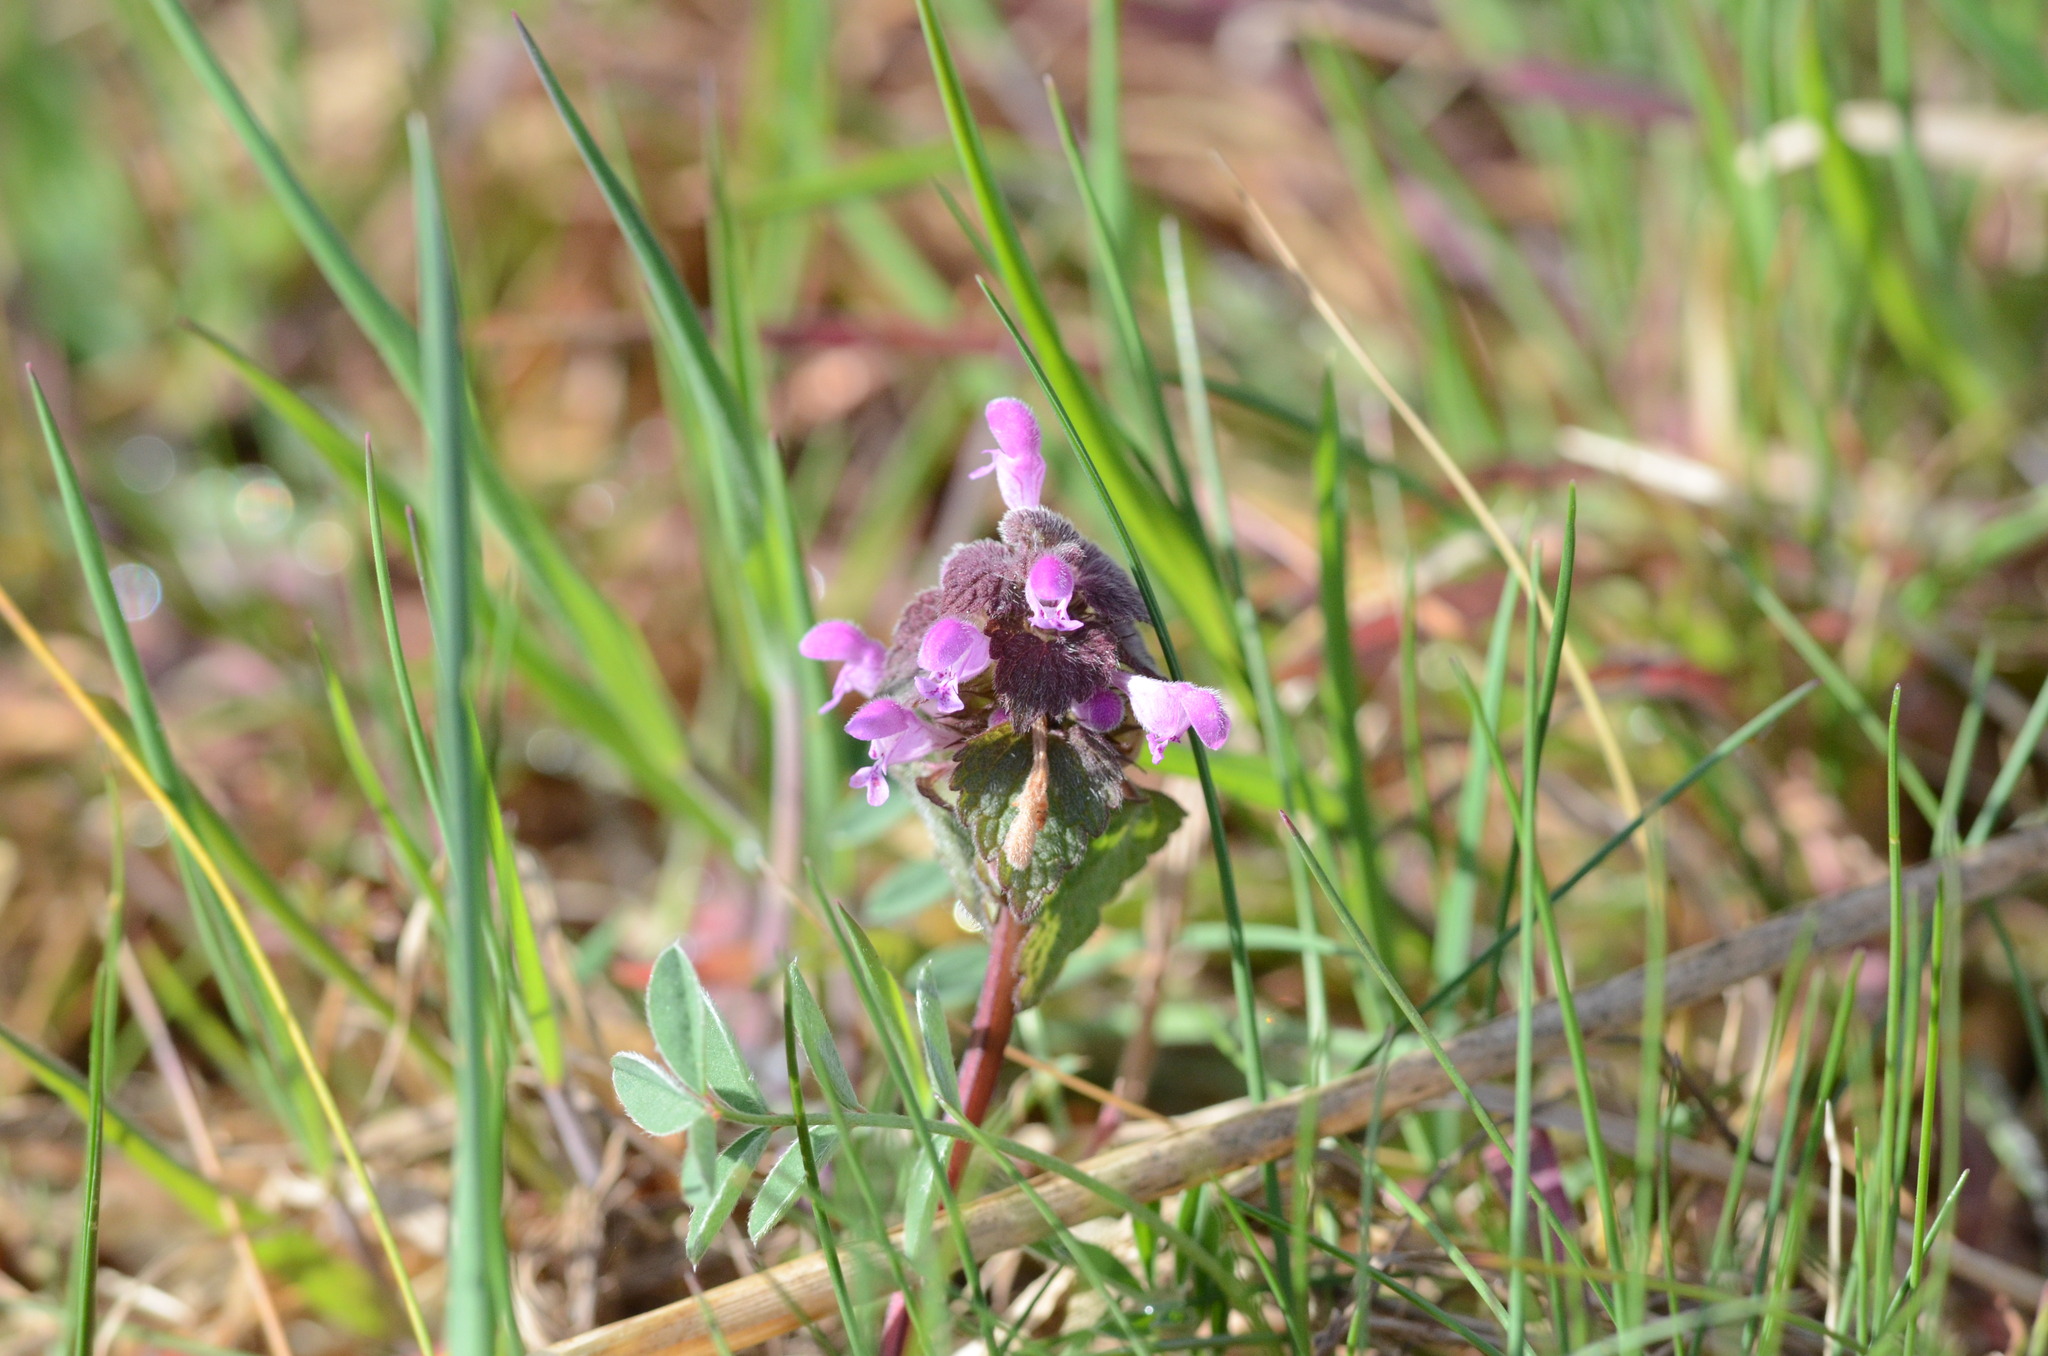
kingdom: Plantae
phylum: Tracheophyta
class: Magnoliopsida
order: Lamiales
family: Lamiaceae
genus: Lamium
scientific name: Lamium purpureum
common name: Red dead-nettle
